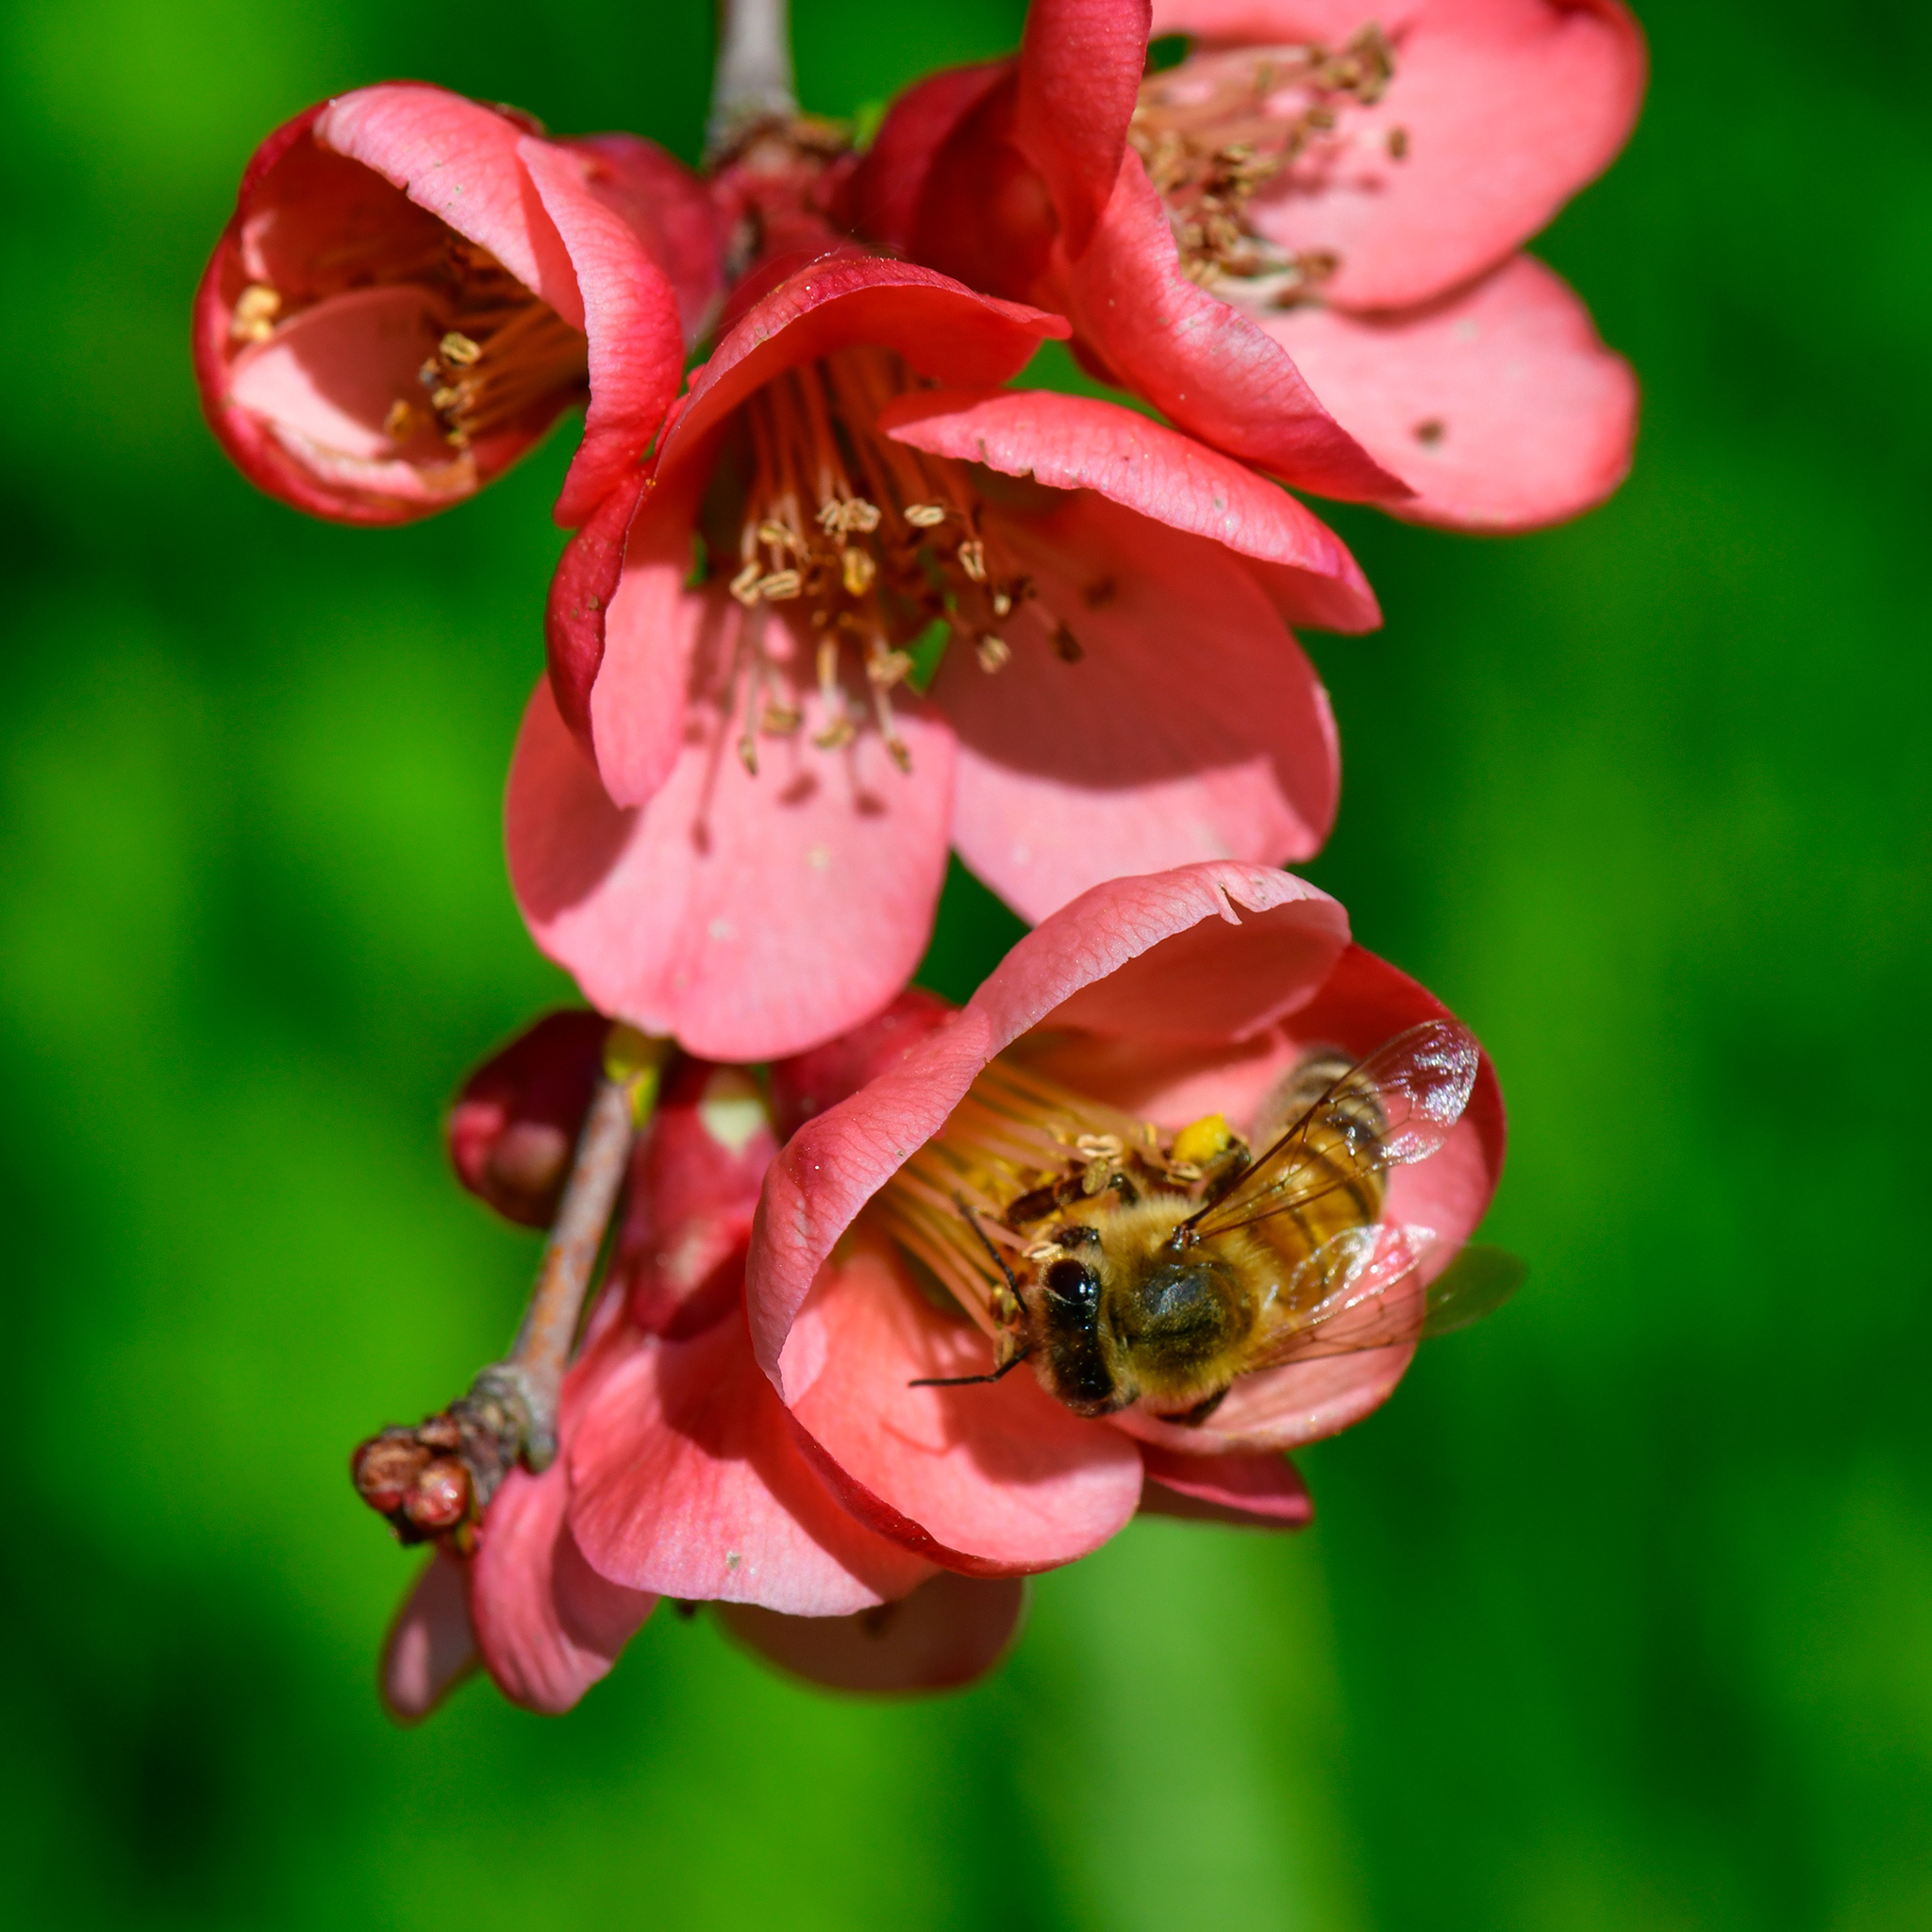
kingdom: Animalia
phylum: Arthropoda
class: Insecta
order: Hymenoptera
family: Apidae
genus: Apis
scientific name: Apis mellifera
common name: Honey bee
